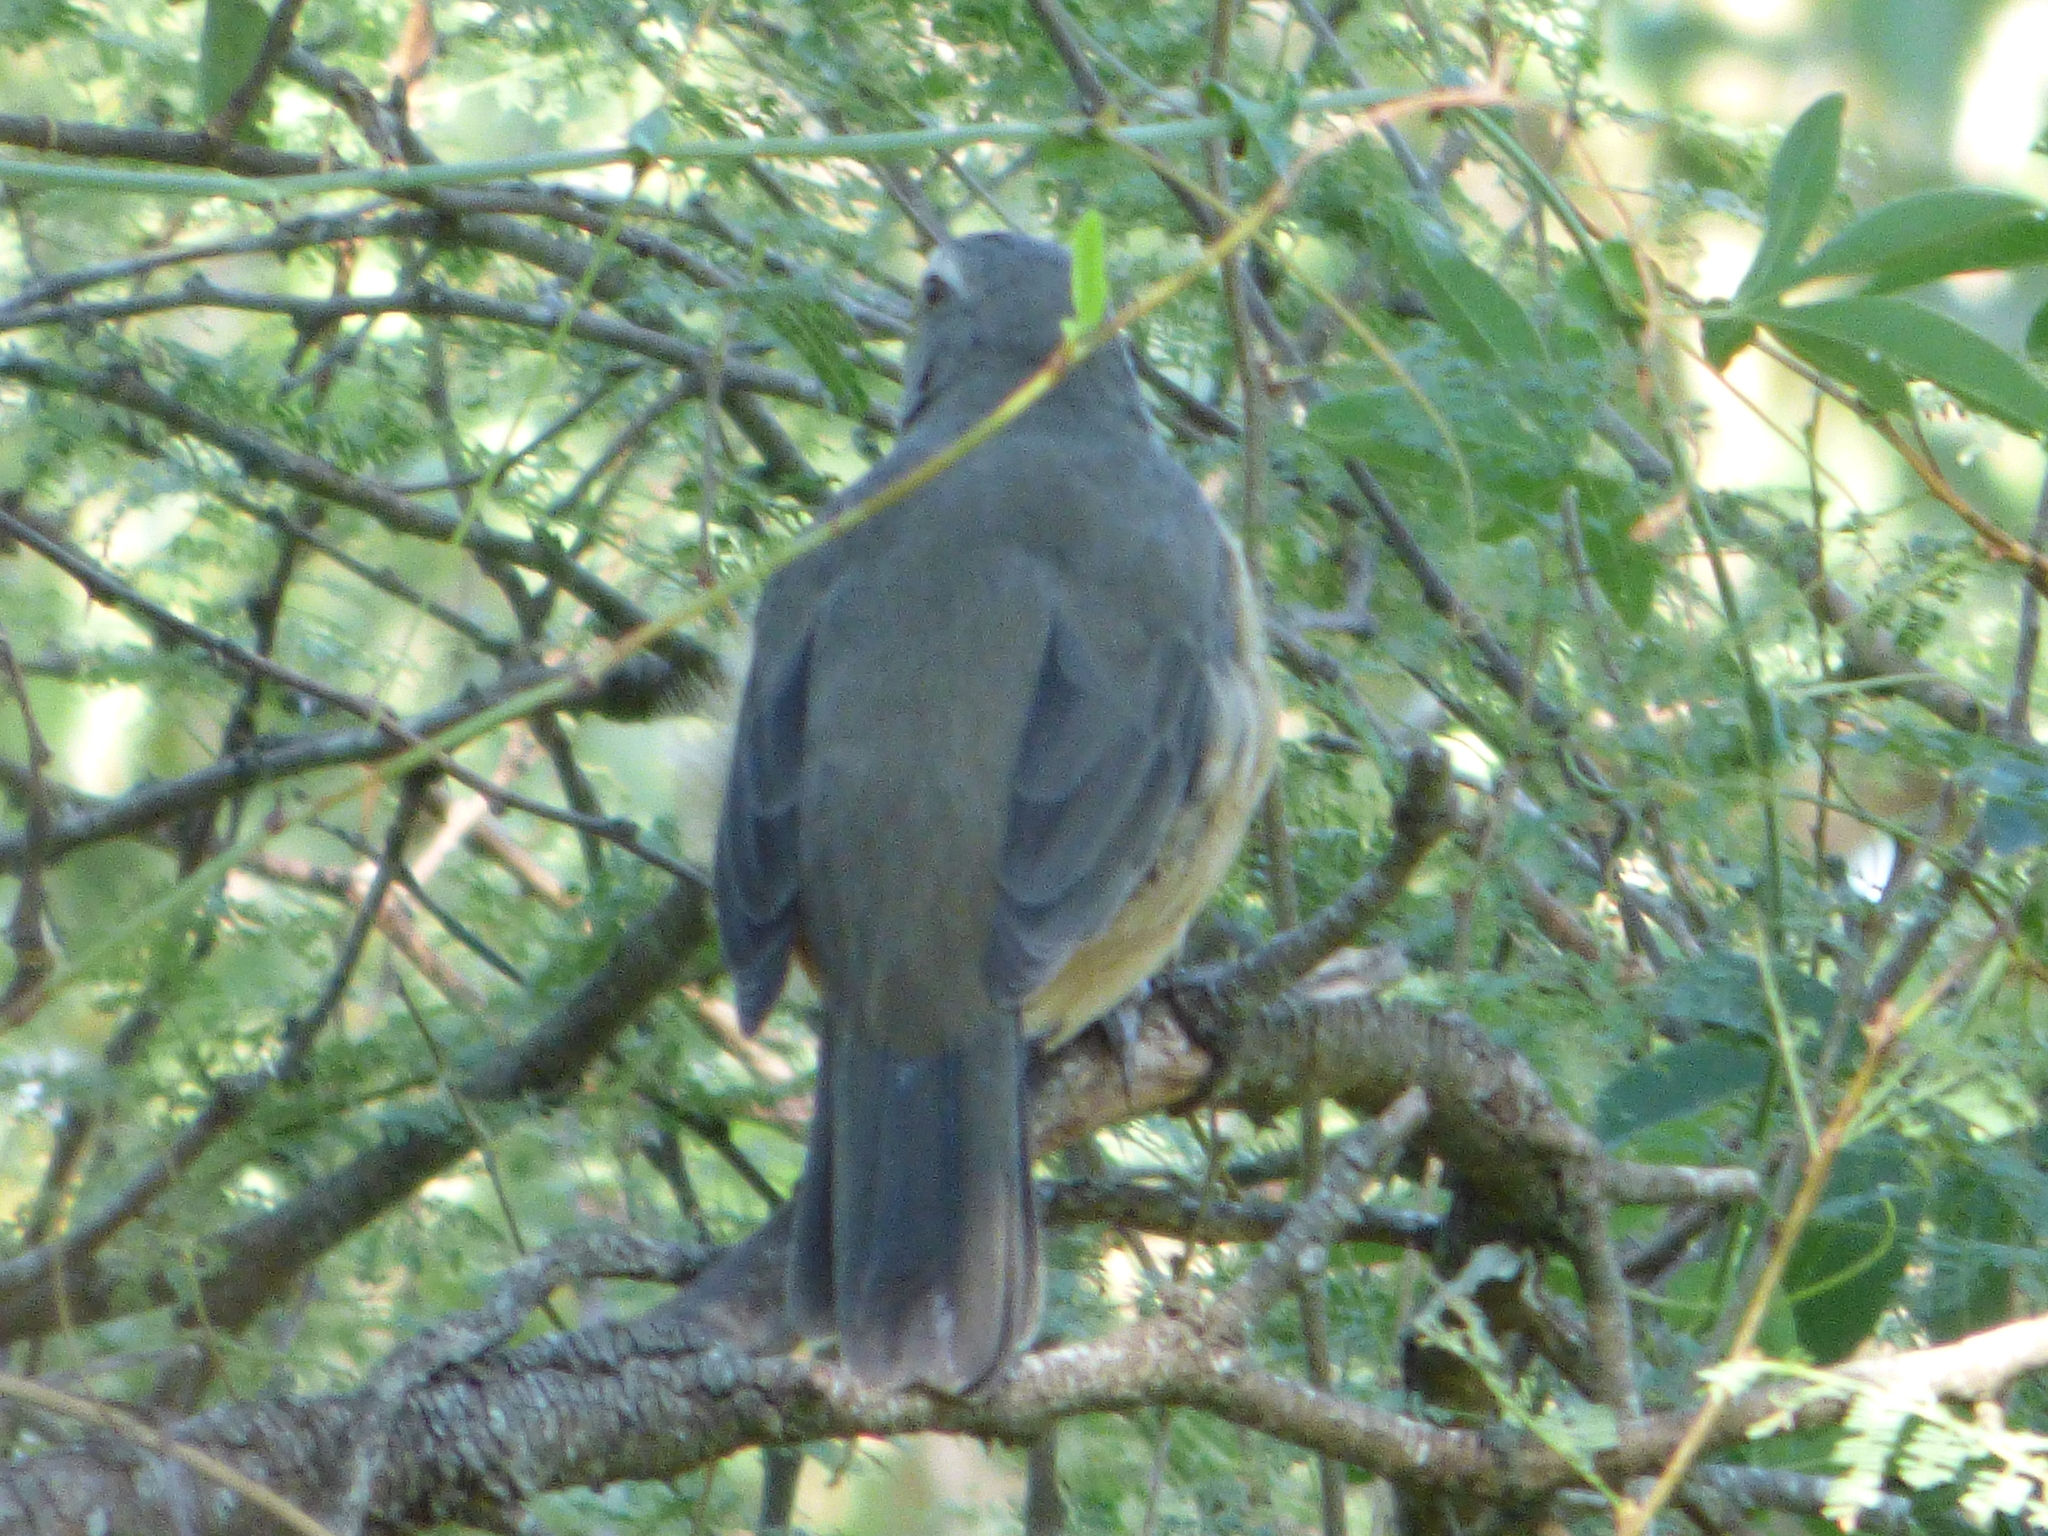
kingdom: Animalia
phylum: Chordata
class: Aves
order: Passeriformes
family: Thraupidae
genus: Saltator
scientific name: Saltator coerulescens
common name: Grayish saltator
